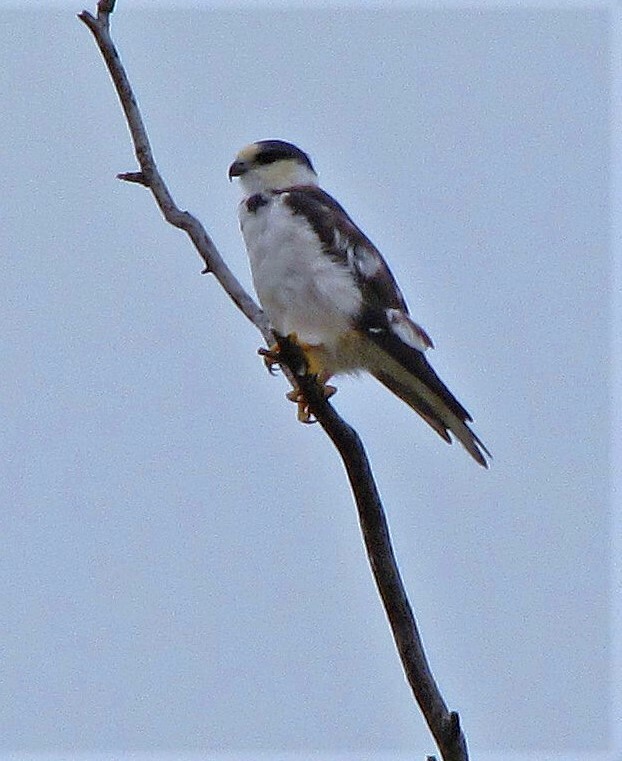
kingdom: Animalia
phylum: Chordata
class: Aves
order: Accipitriformes
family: Accipitridae
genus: Gampsonyx
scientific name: Gampsonyx swainsonii
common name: Pearl kite
